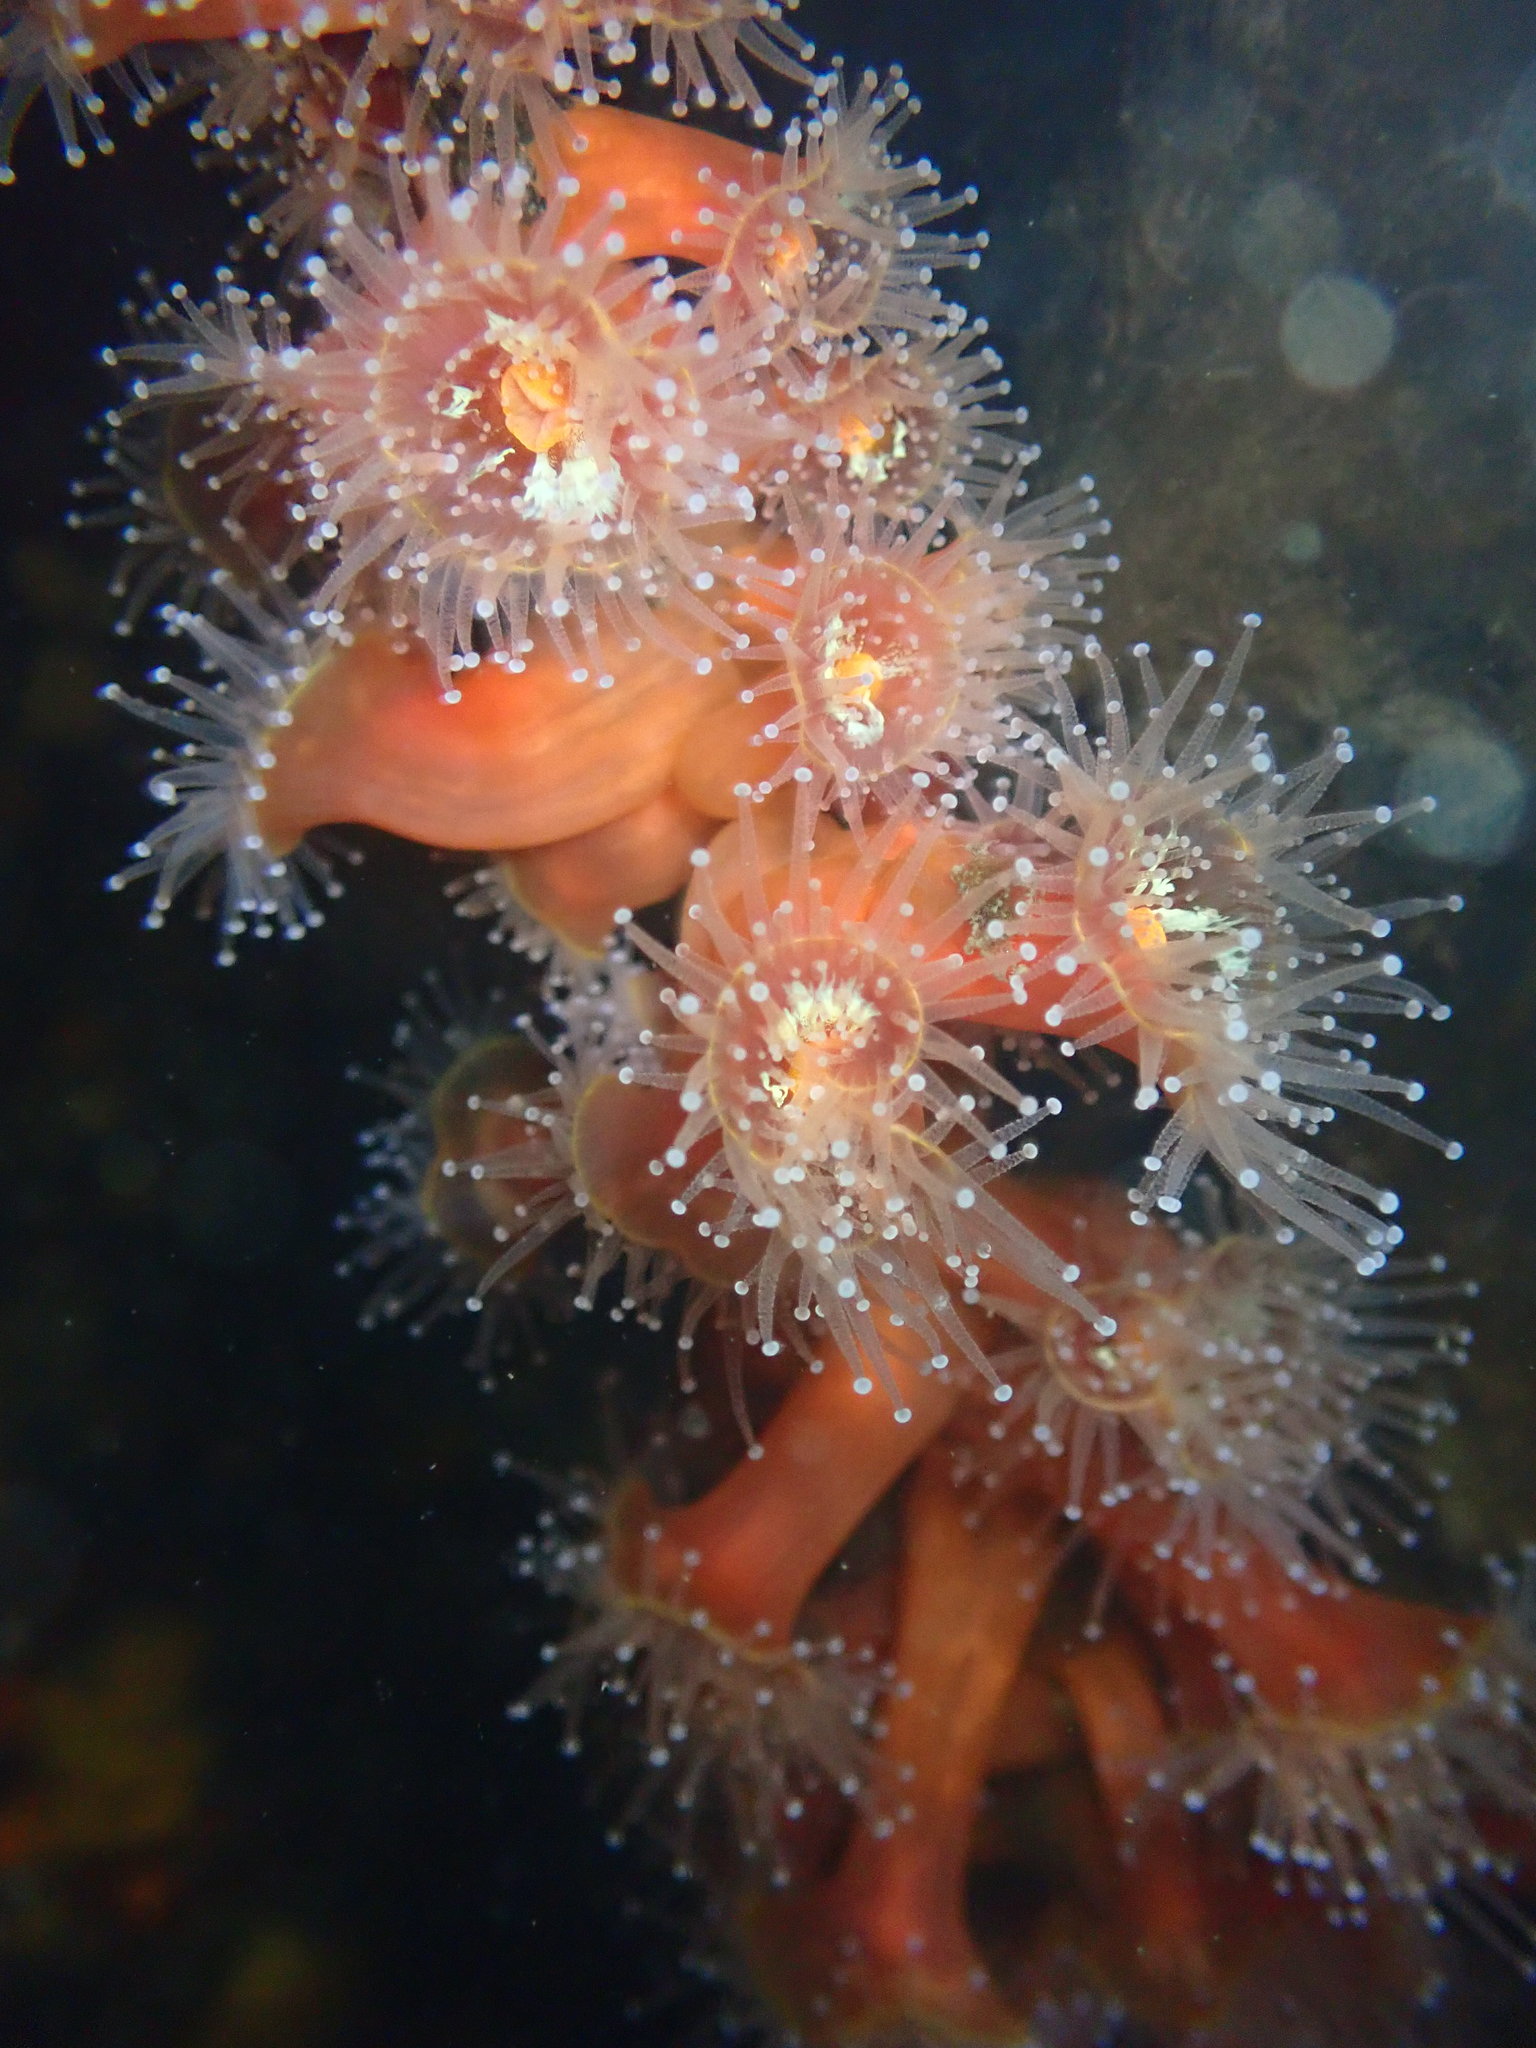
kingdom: Animalia
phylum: Cnidaria
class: Anthozoa
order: Corallimorpharia
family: Corallimorphidae
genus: Corynactis
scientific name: Corynactis californica
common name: Strawberry corallimorpharian
